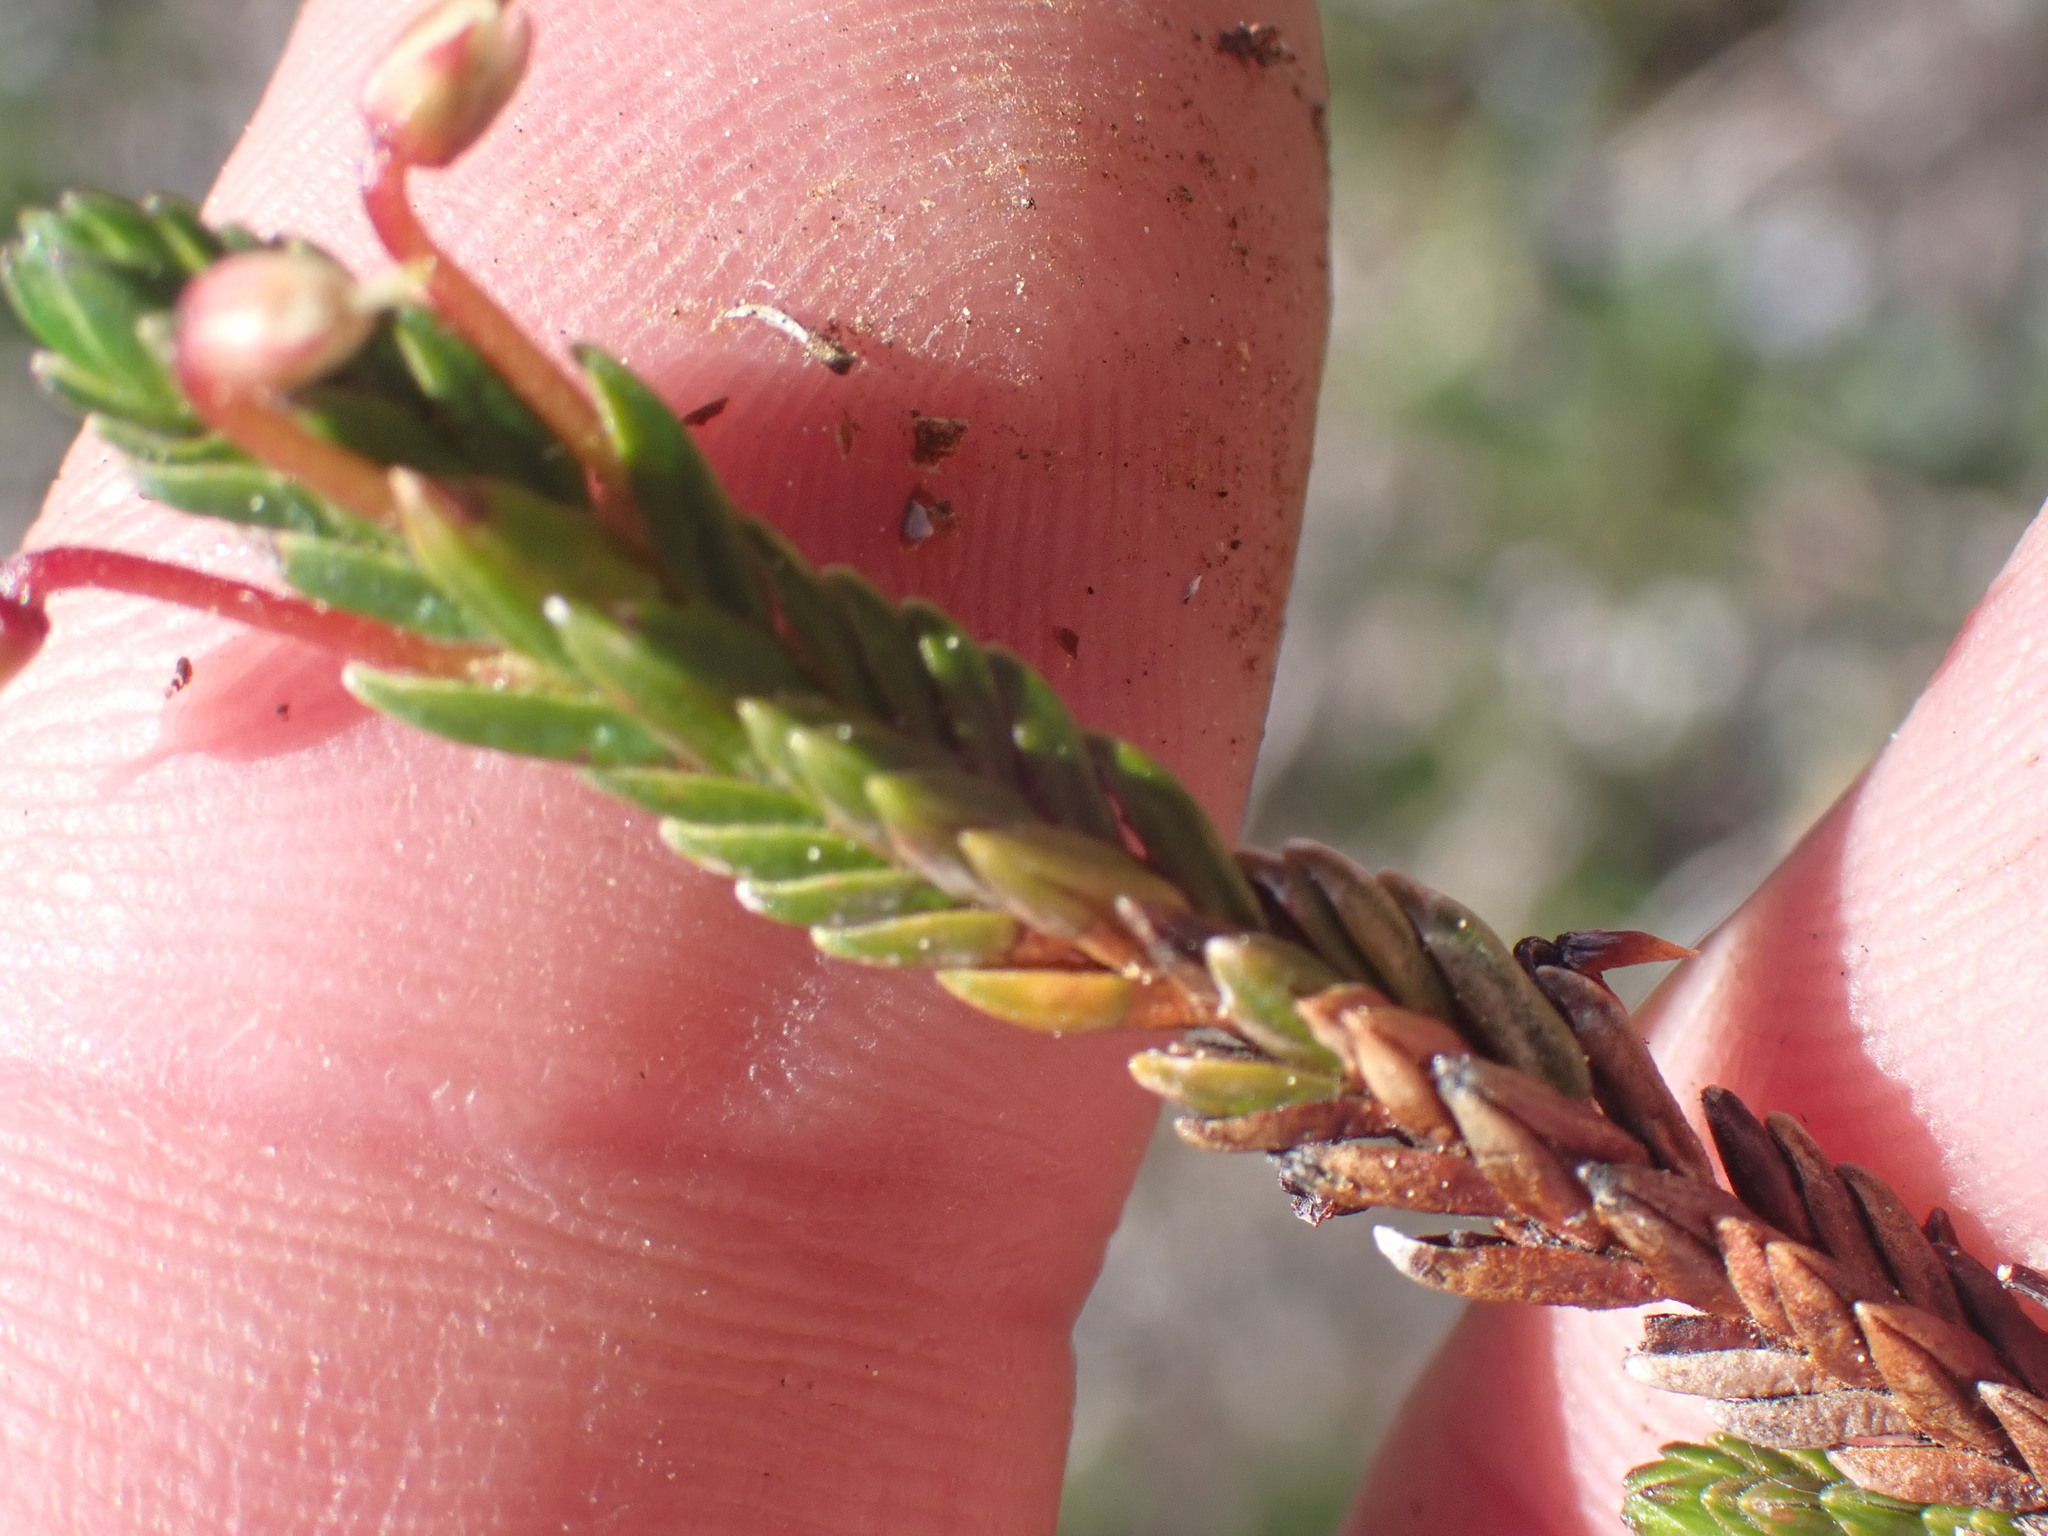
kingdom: Plantae
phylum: Tracheophyta
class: Magnoliopsida
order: Ericales
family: Ericaceae
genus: Cassiope
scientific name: Cassiope tetragona
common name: Arctic bell heather
